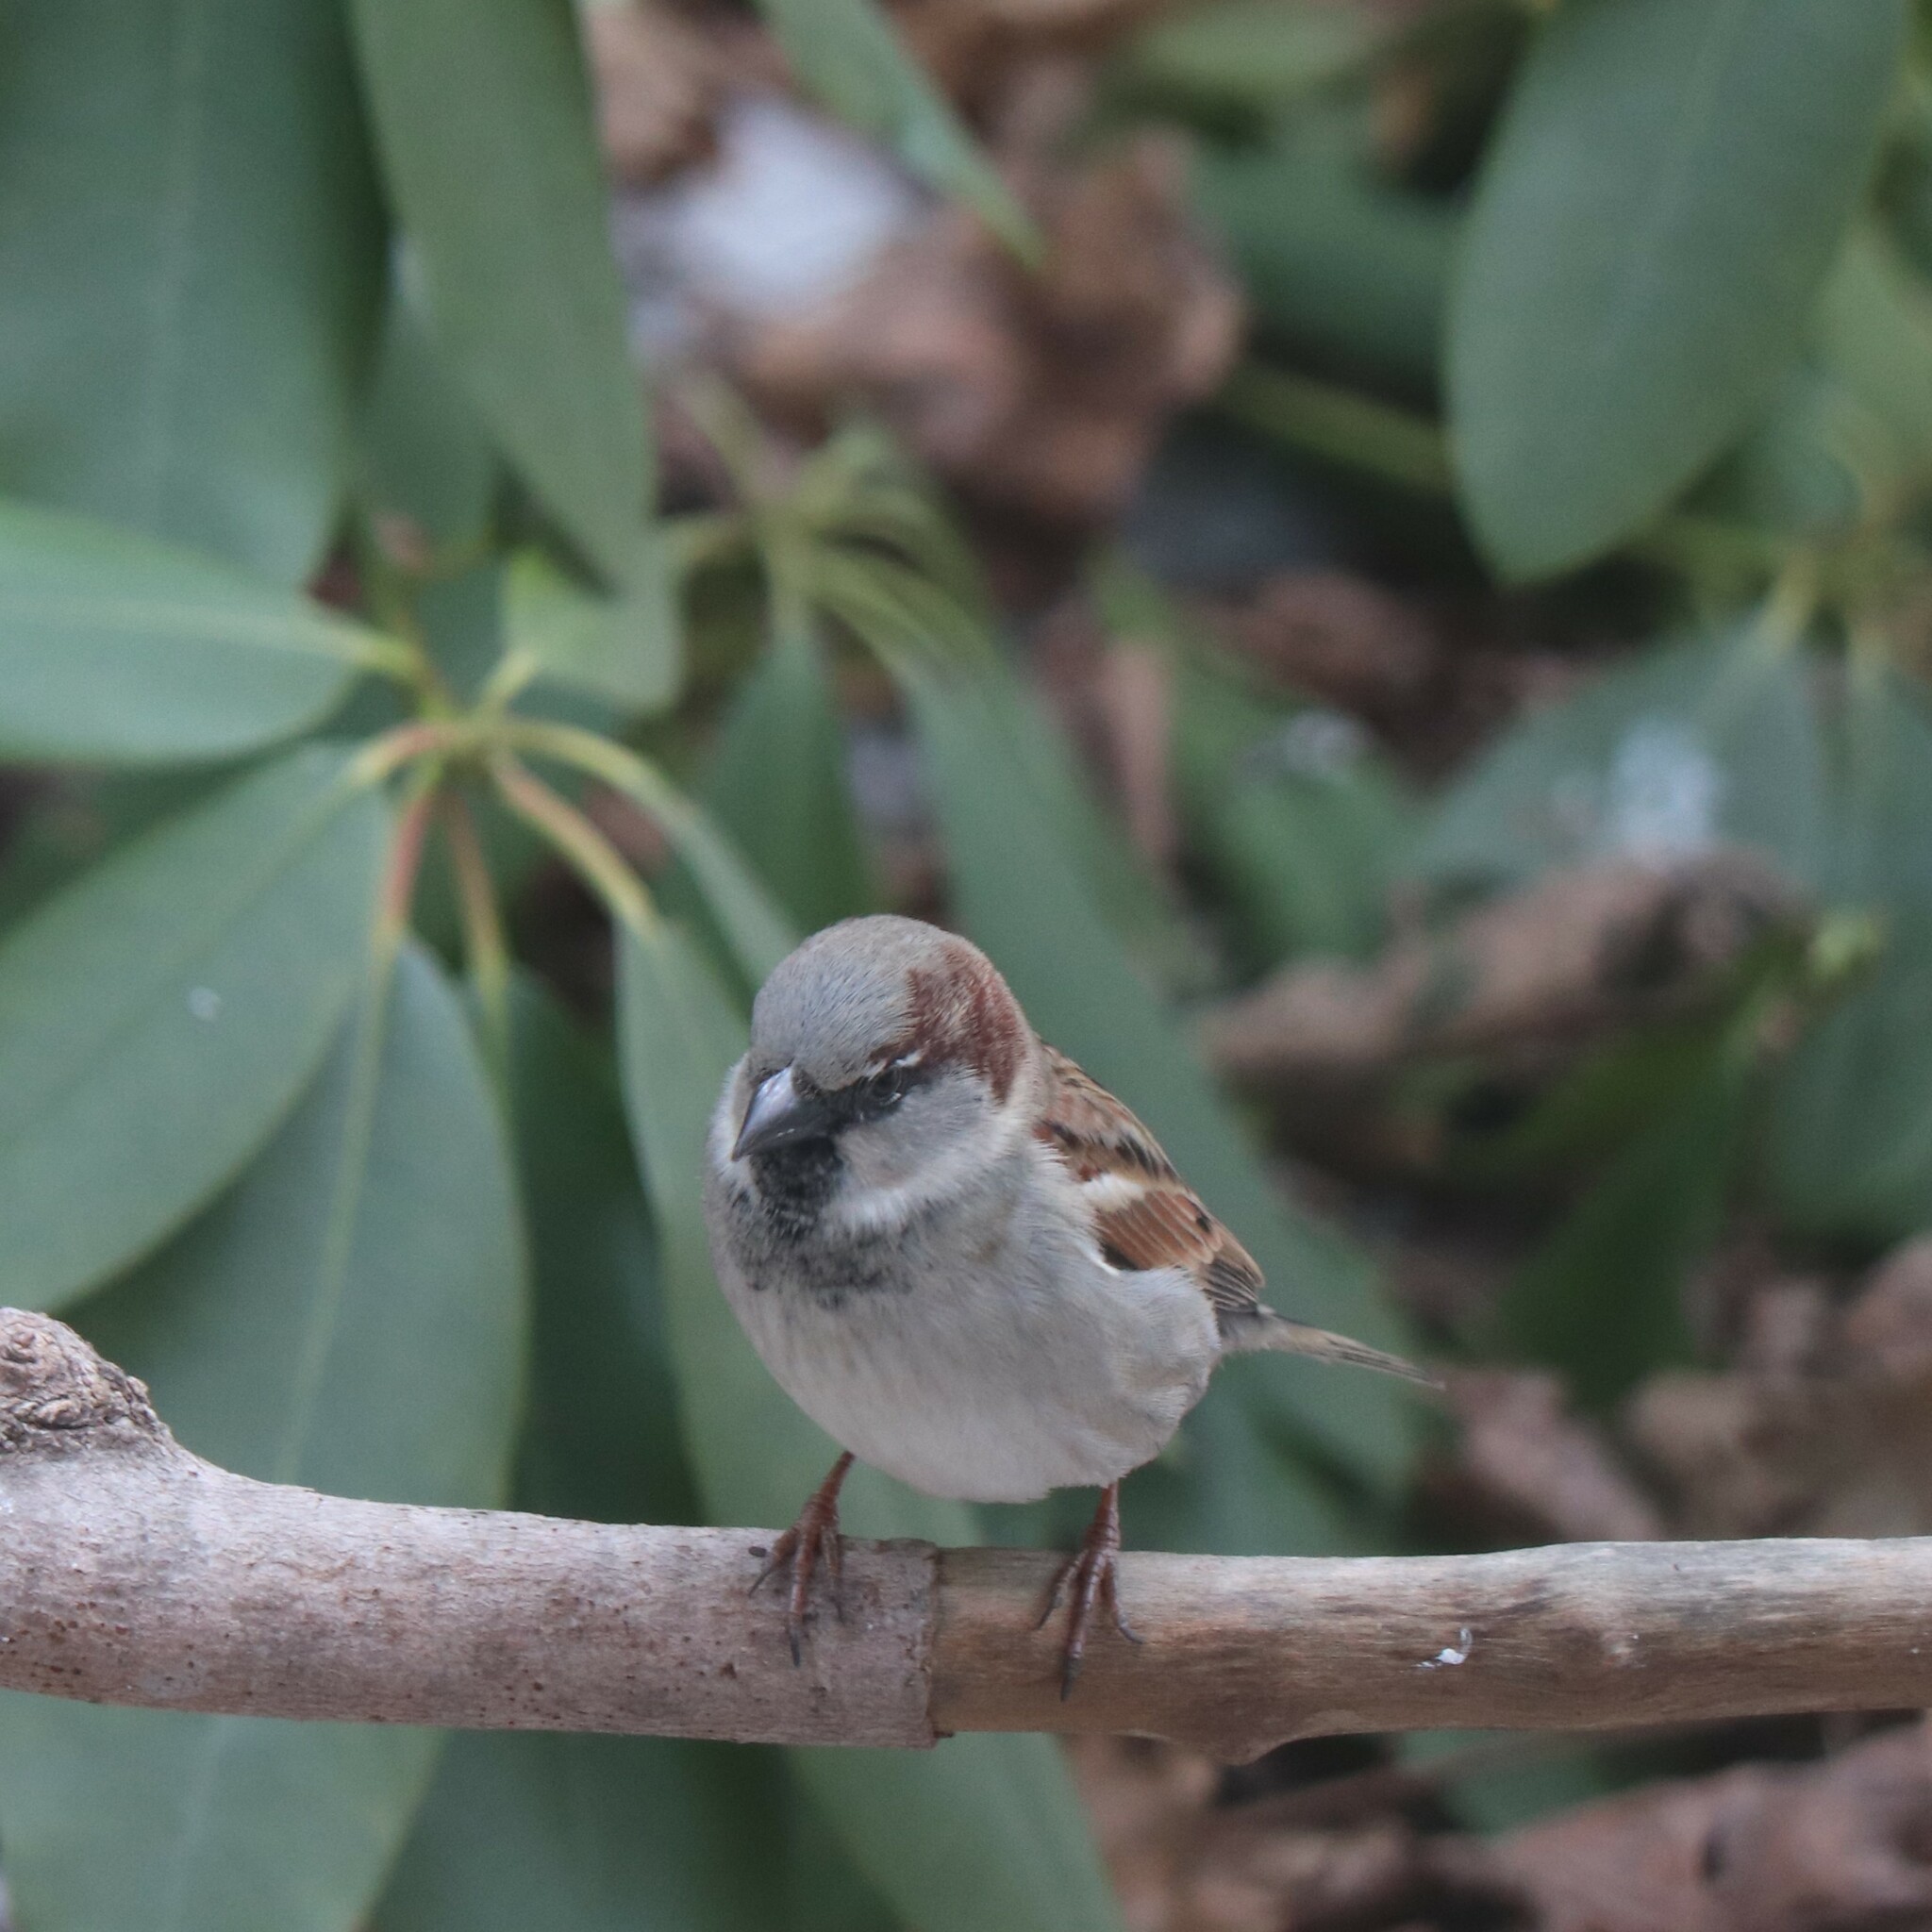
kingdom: Animalia
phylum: Chordata
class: Aves
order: Passeriformes
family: Passeridae
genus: Passer
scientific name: Passer domesticus
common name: House sparrow
